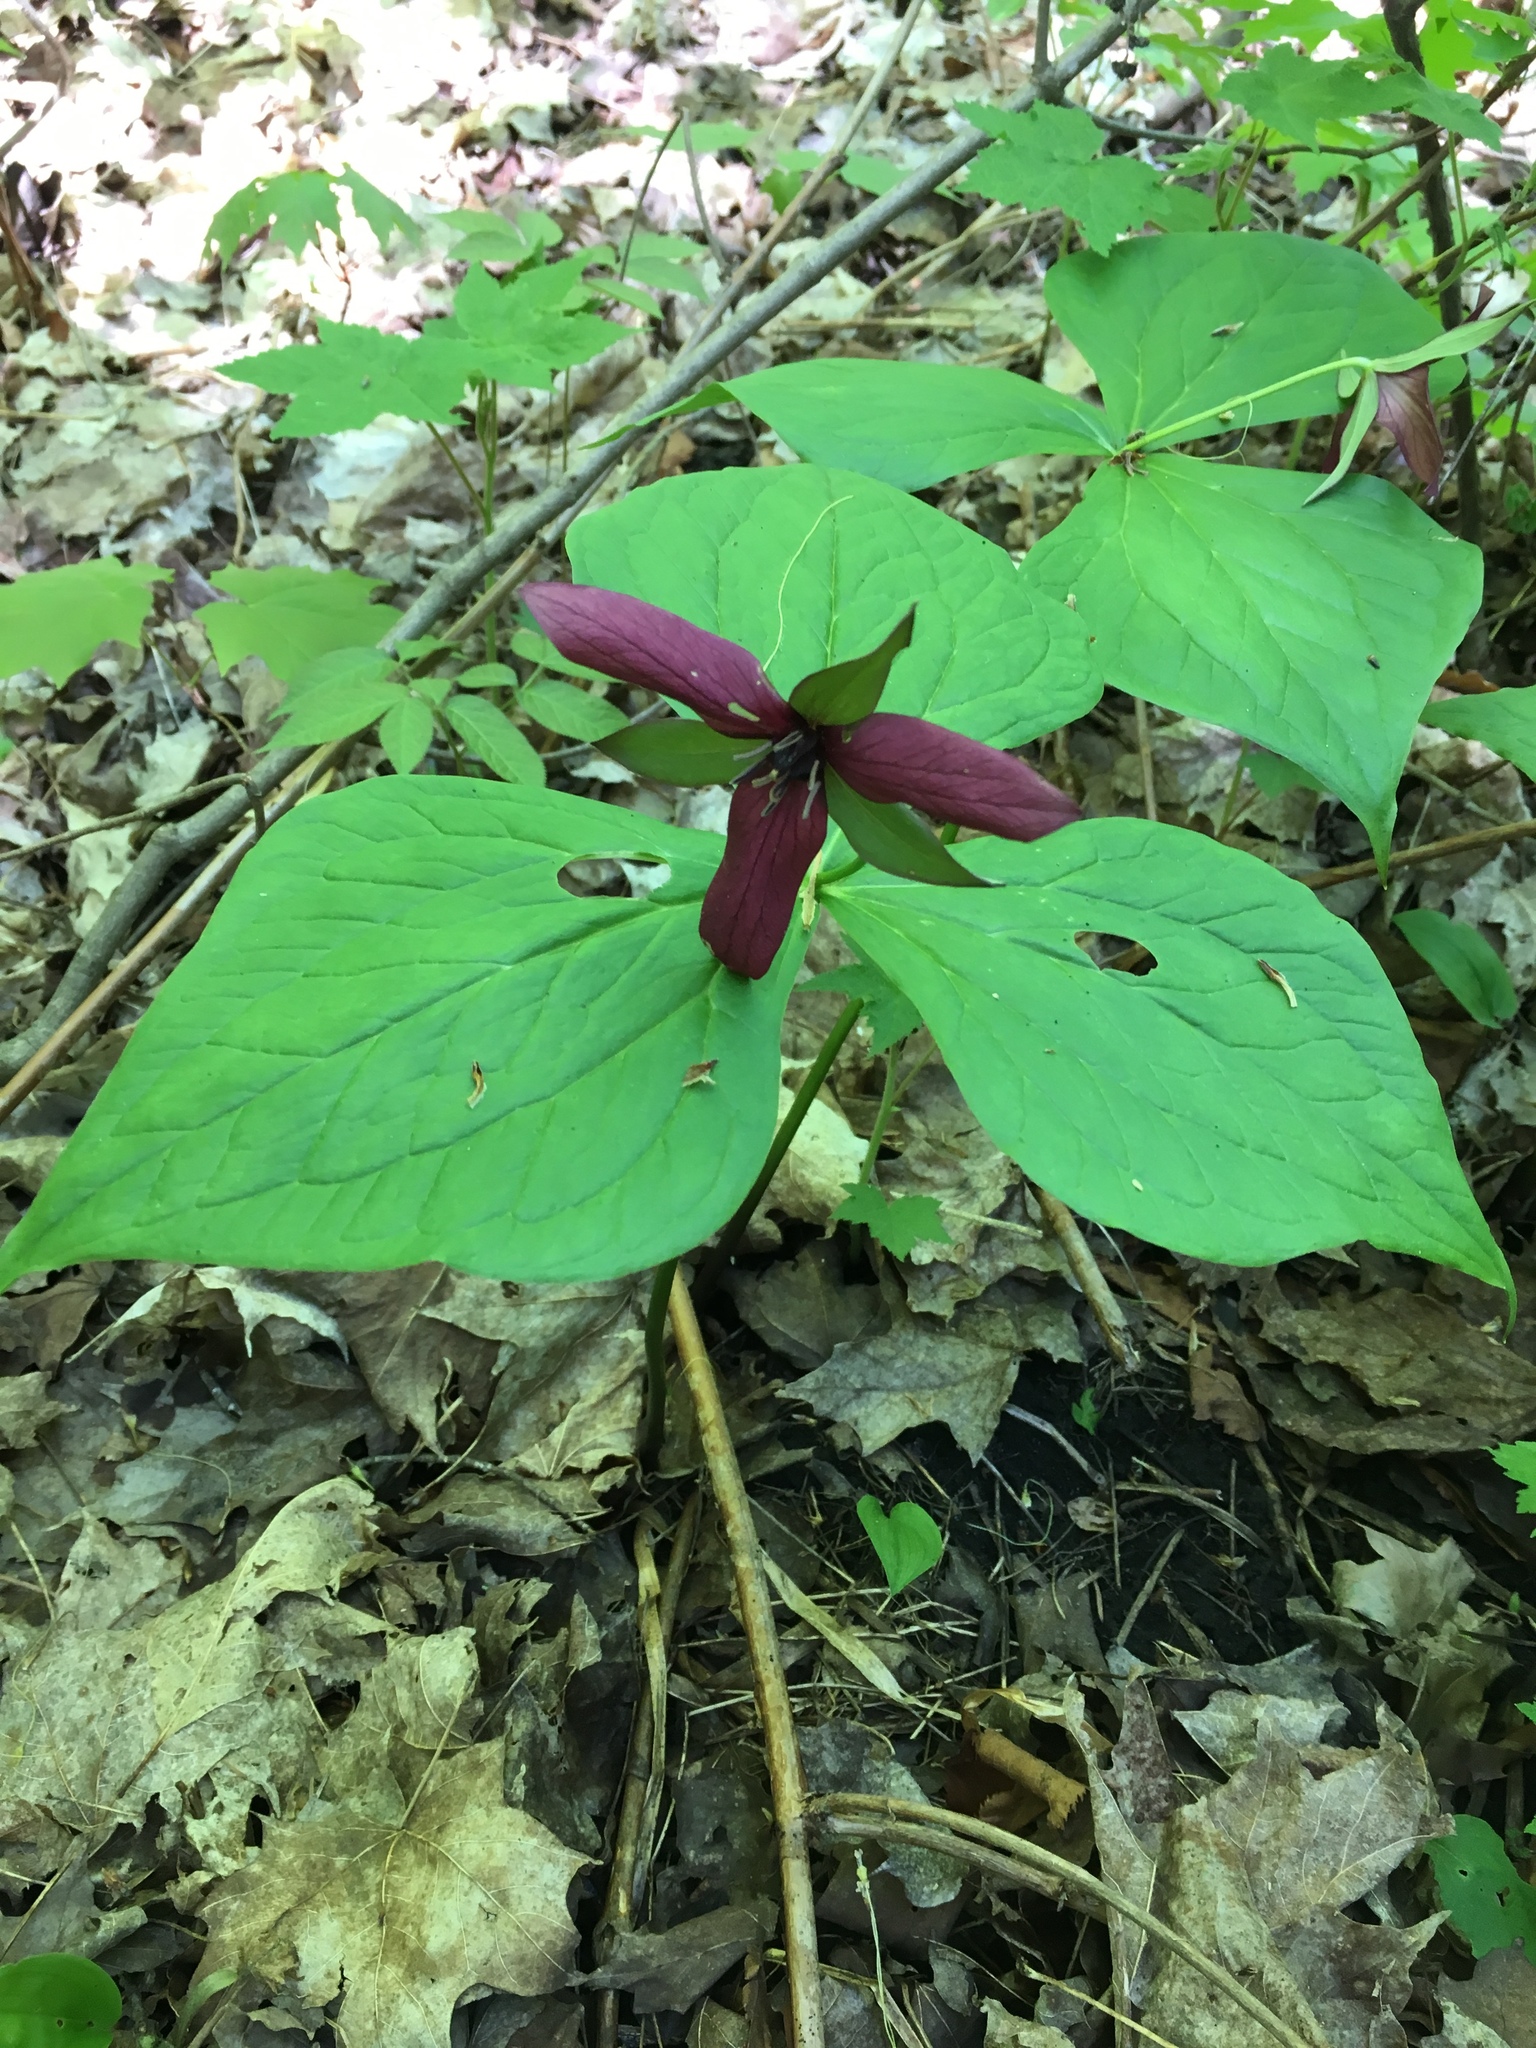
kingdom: Plantae
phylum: Tracheophyta
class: Liliopsida
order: Liliales
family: Melanthiaceae
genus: Trillium
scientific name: Trillium erectum
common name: Purple trillium
